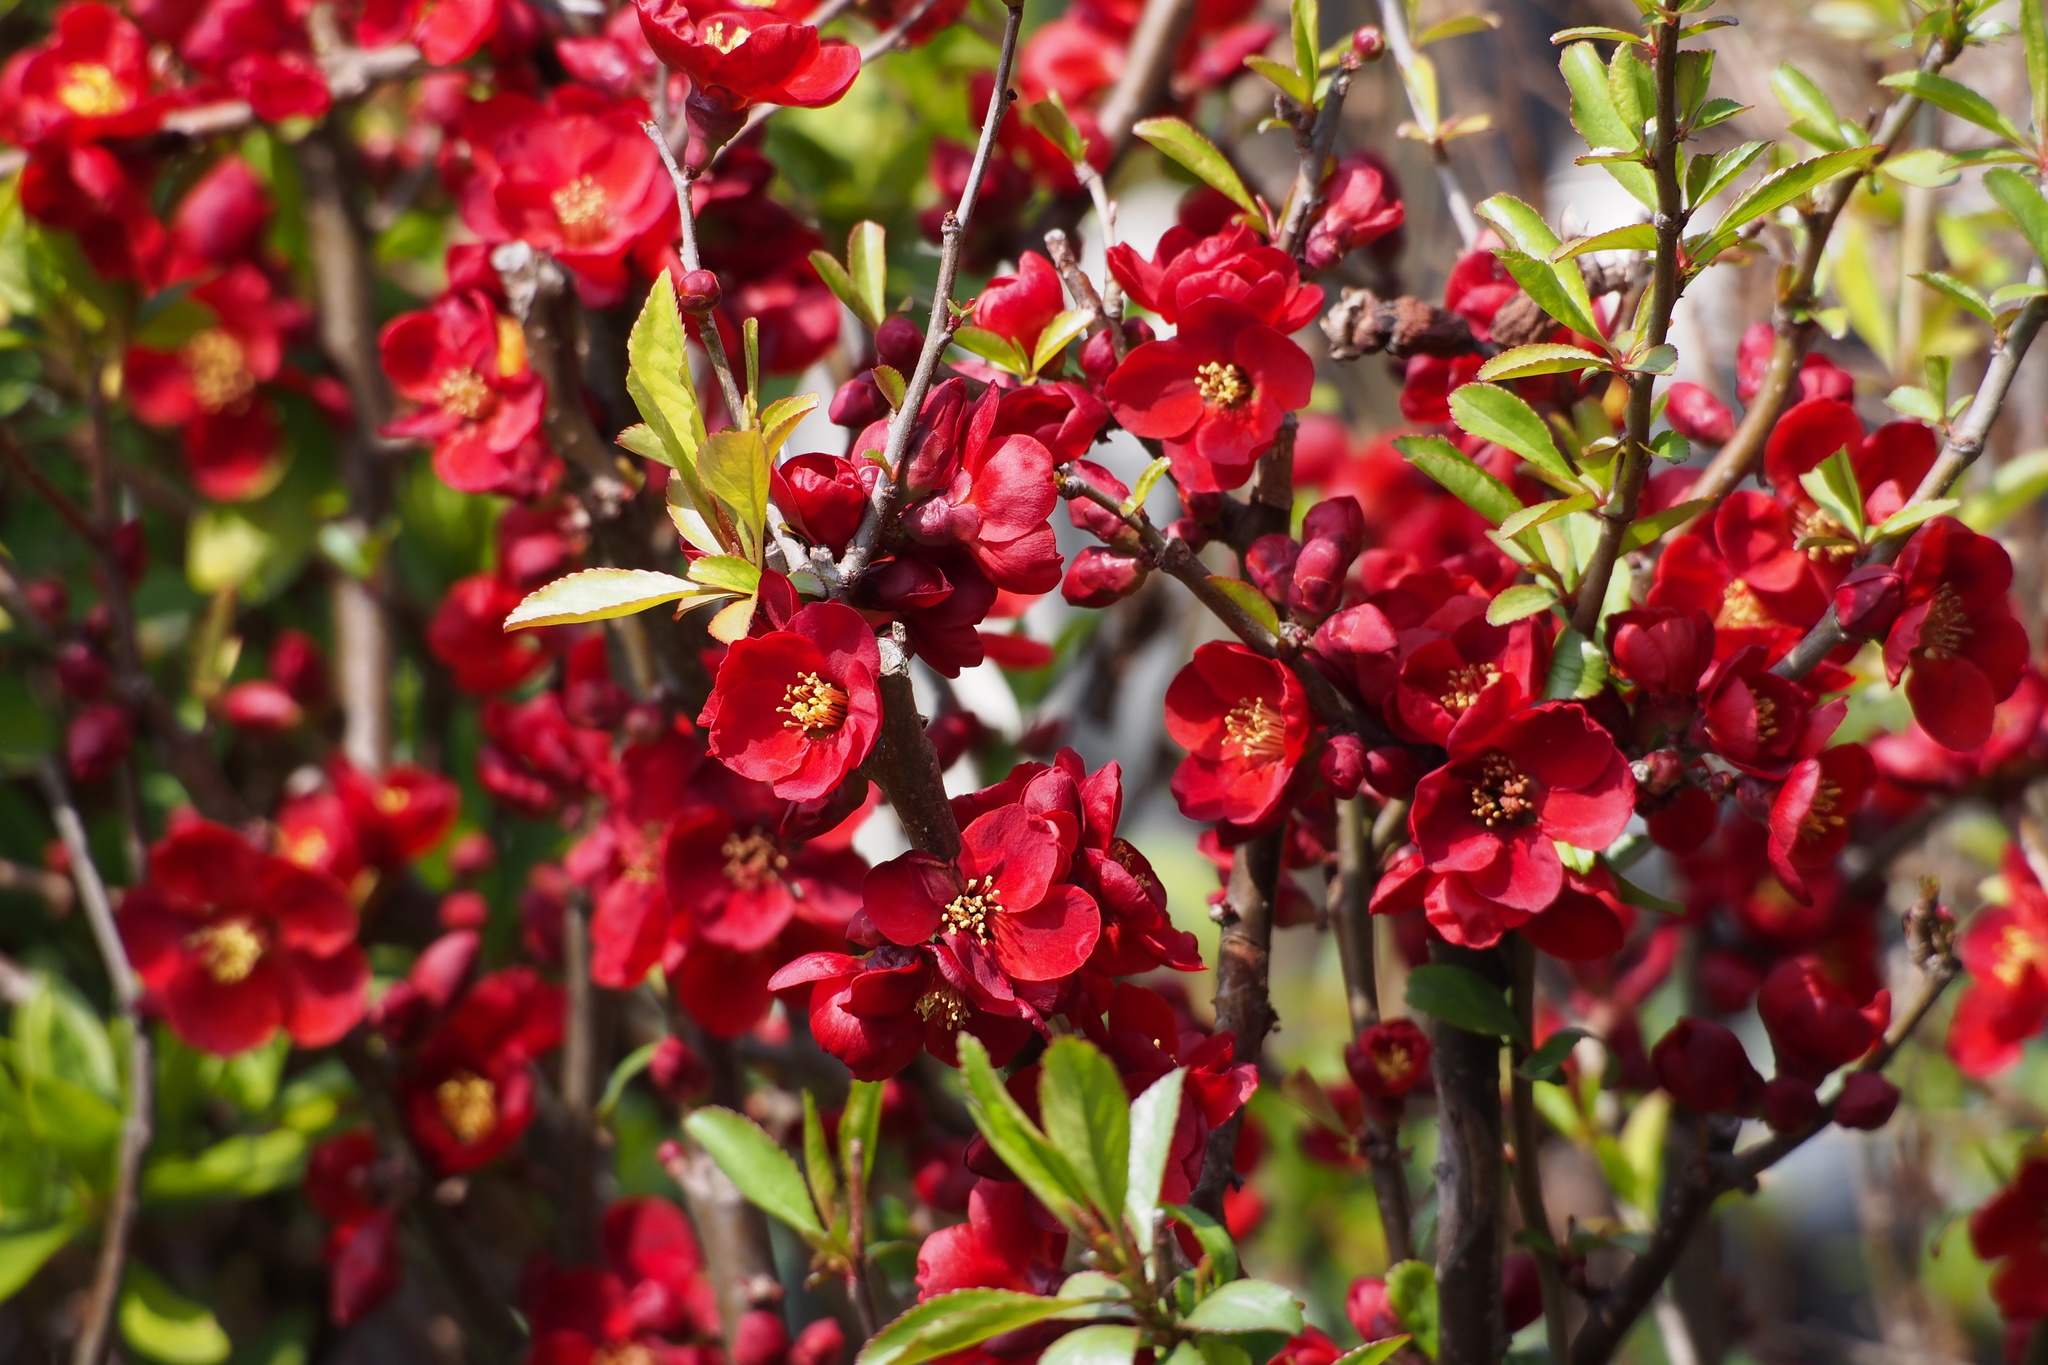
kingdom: Plantae
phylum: Tracheophyta
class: Magnoliopsida
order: Rosales
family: Rosaceae
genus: Chaenomeles
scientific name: Chaenomeles speciosa
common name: Japanese quince
